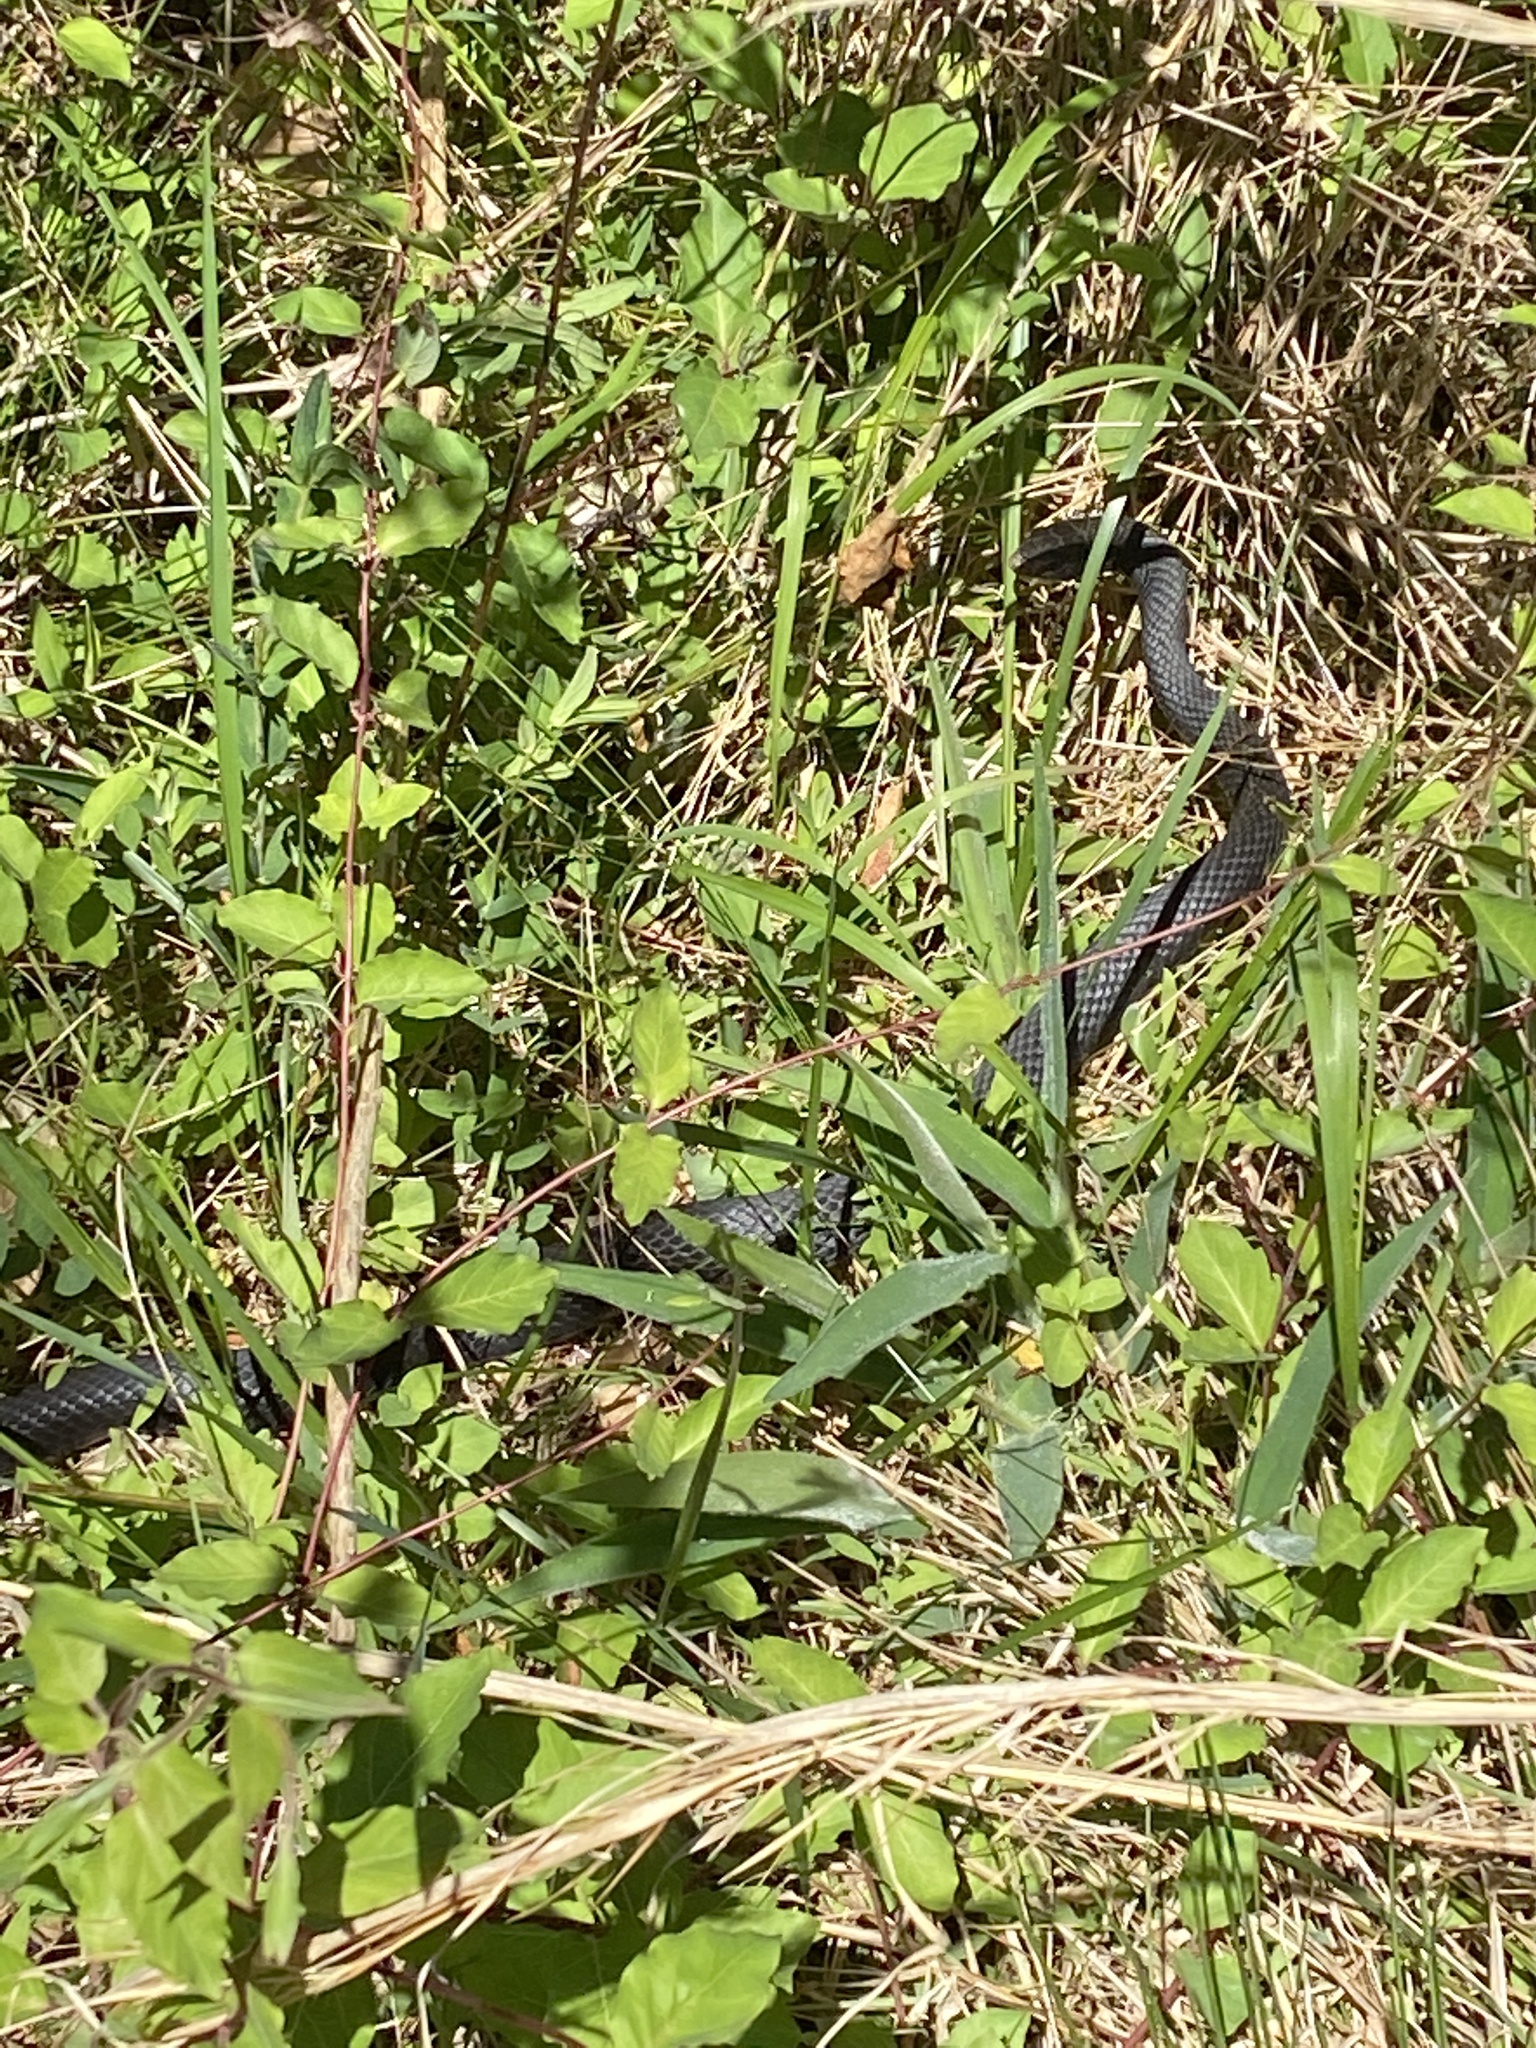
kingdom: Animalia
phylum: Chordata
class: Squamata
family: Colubridae
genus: Coluber
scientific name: Coluber constrictor
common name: Eastern racer
